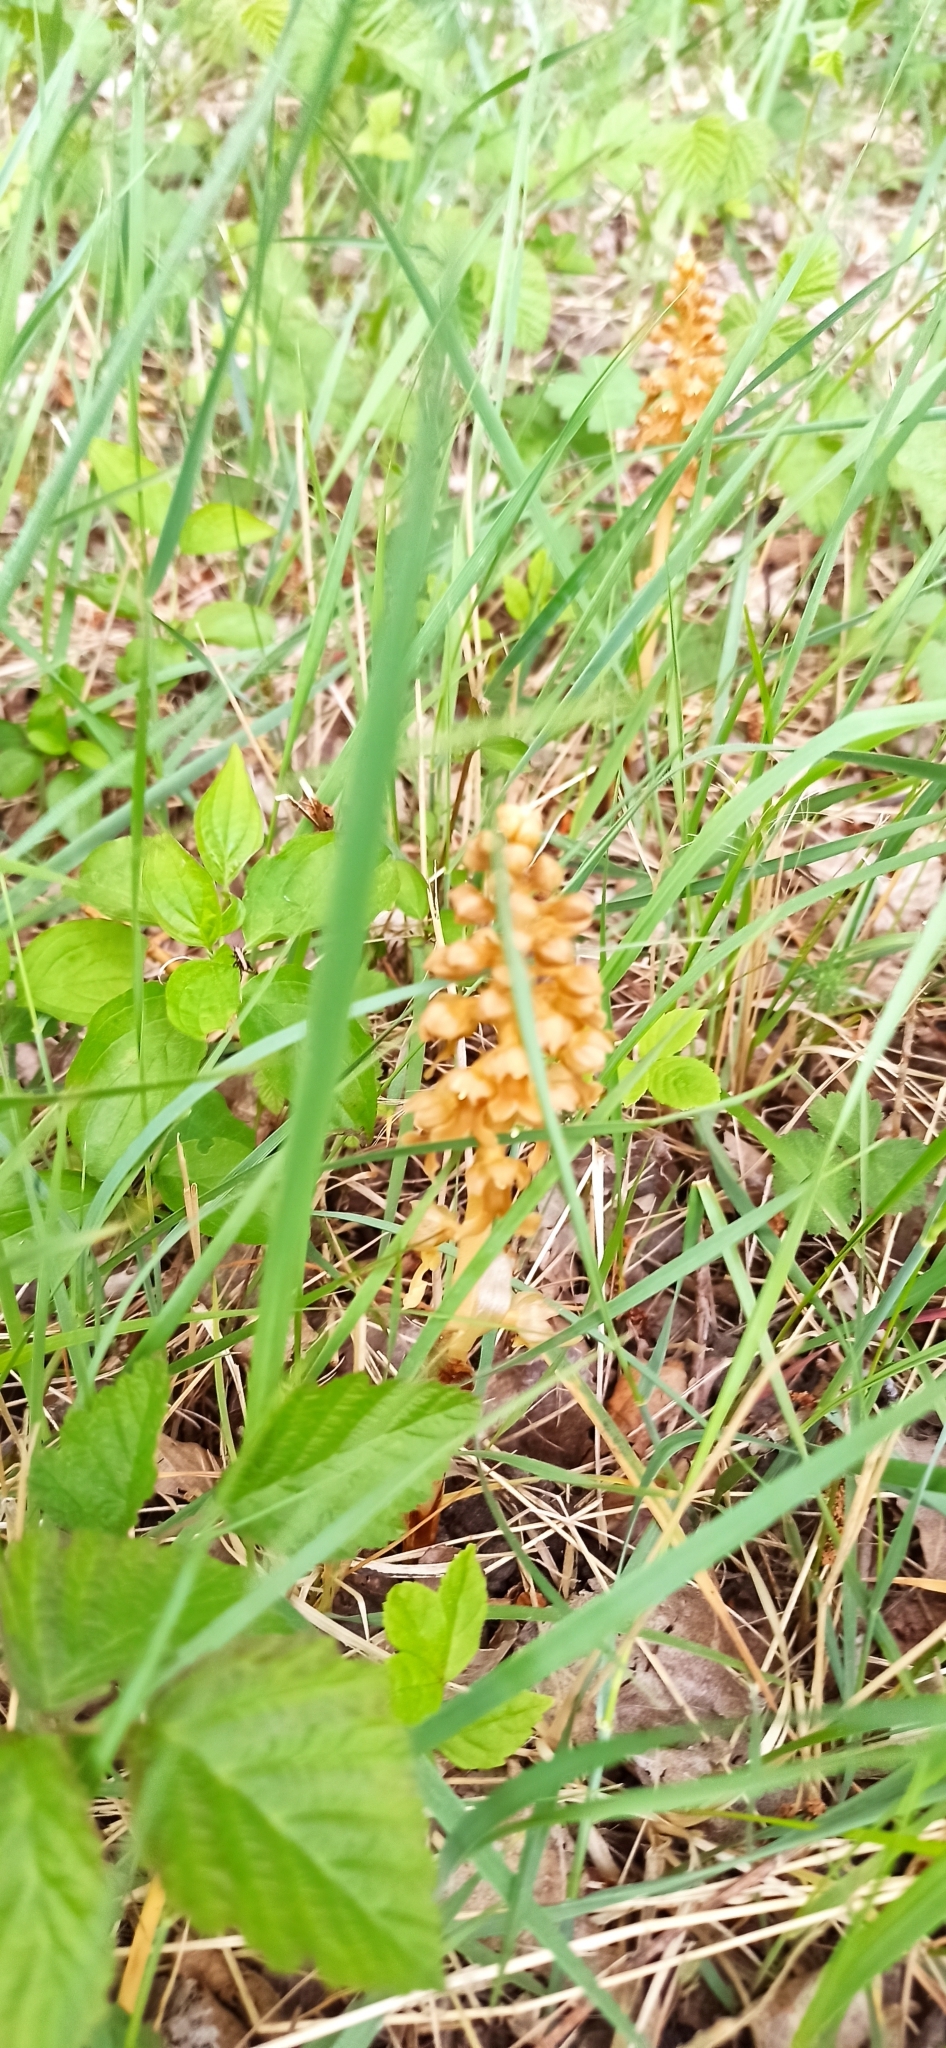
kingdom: Plantae
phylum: Tracheophyta
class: Liliopsida
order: Asparagales
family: Orchidaceae
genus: Neottia
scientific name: Neottia nidus-avis
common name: Bird's-nest orchid
